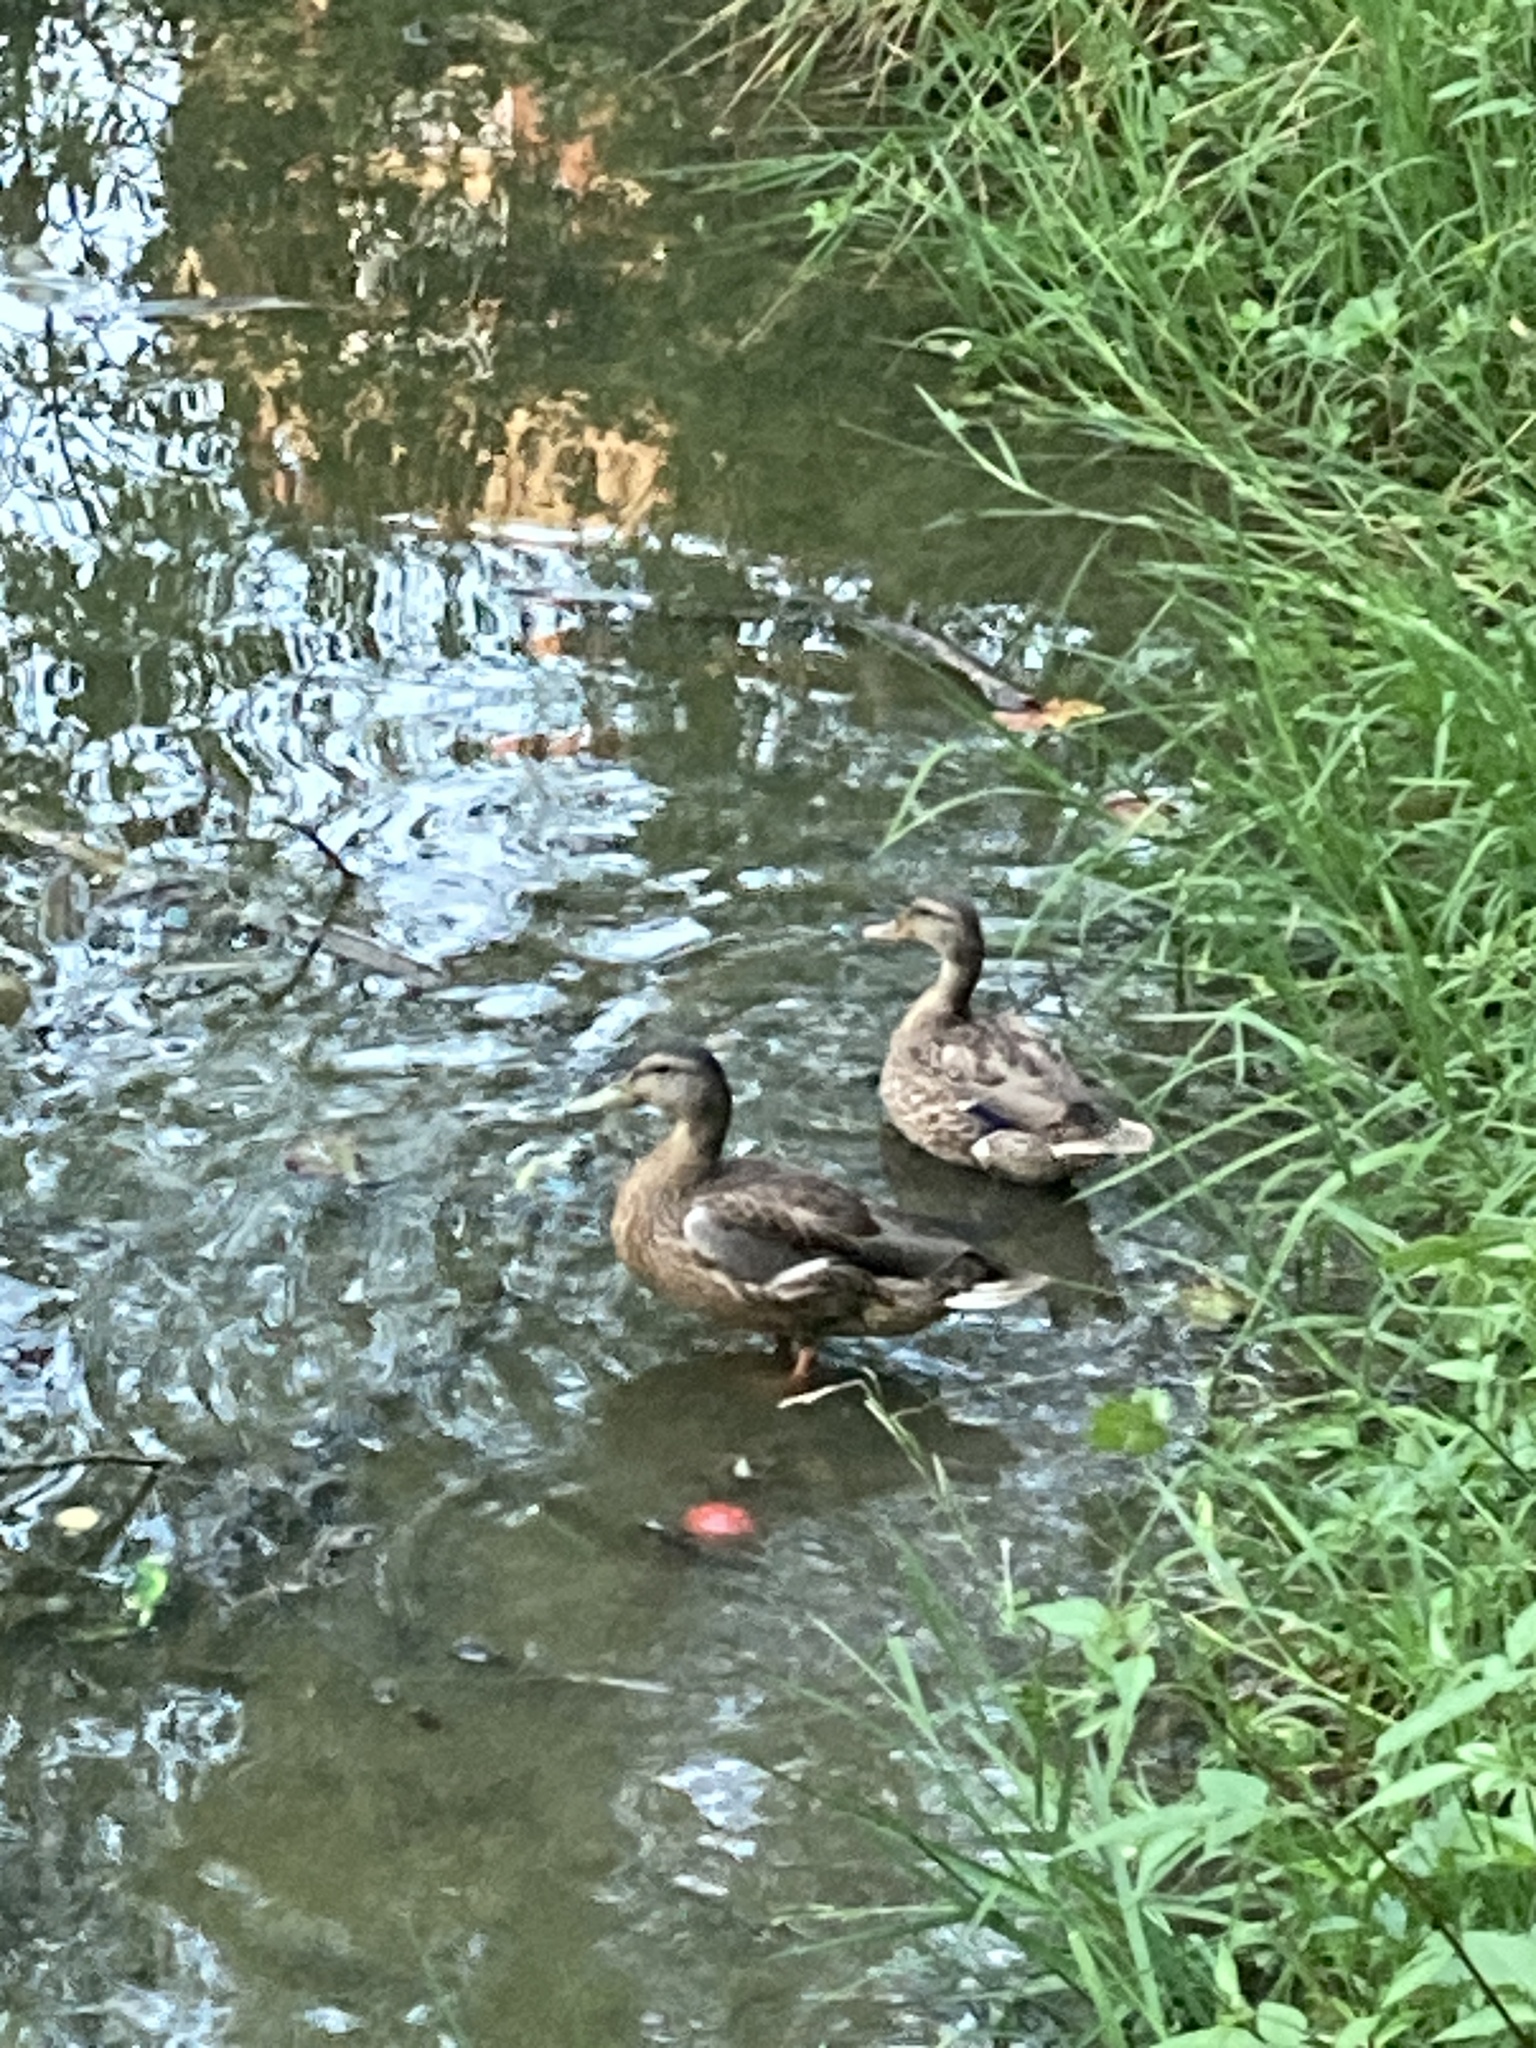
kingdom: Animalia
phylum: Chordata
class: Aves
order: Anseriformes
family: Anatidae
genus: Anas
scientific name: Anas platyrhynchos
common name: Mallard
